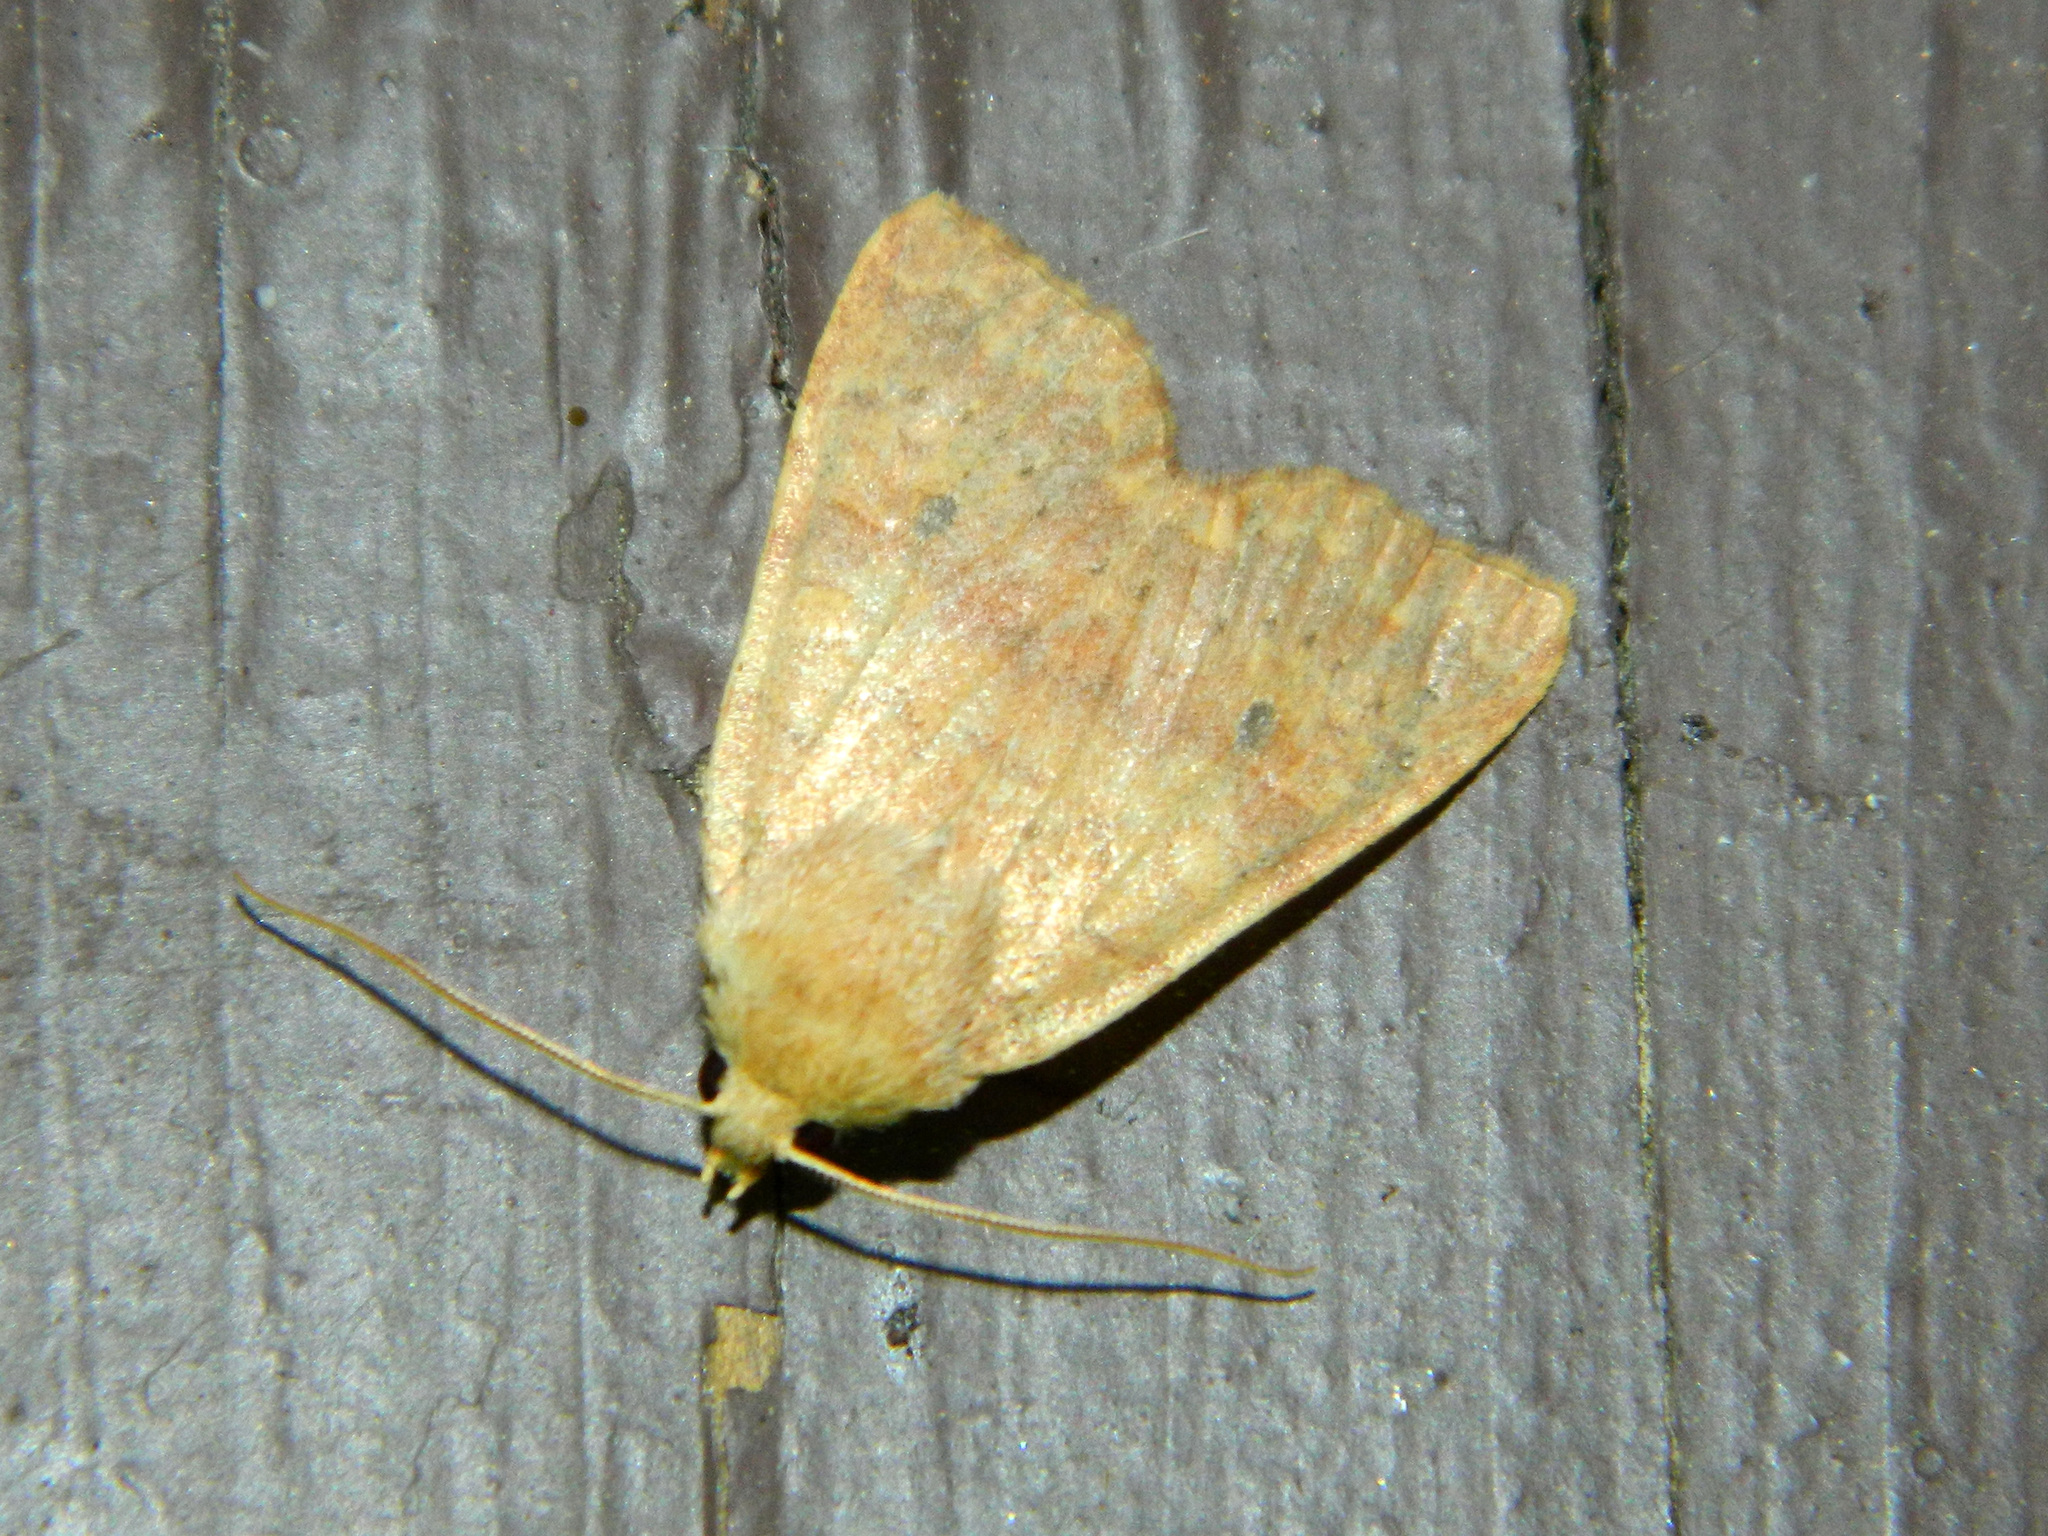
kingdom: Animalia
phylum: Arthropoda
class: Insecta
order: Lepidoptera
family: Noctuidae
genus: Agrochola
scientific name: Agrochola bicolorago
